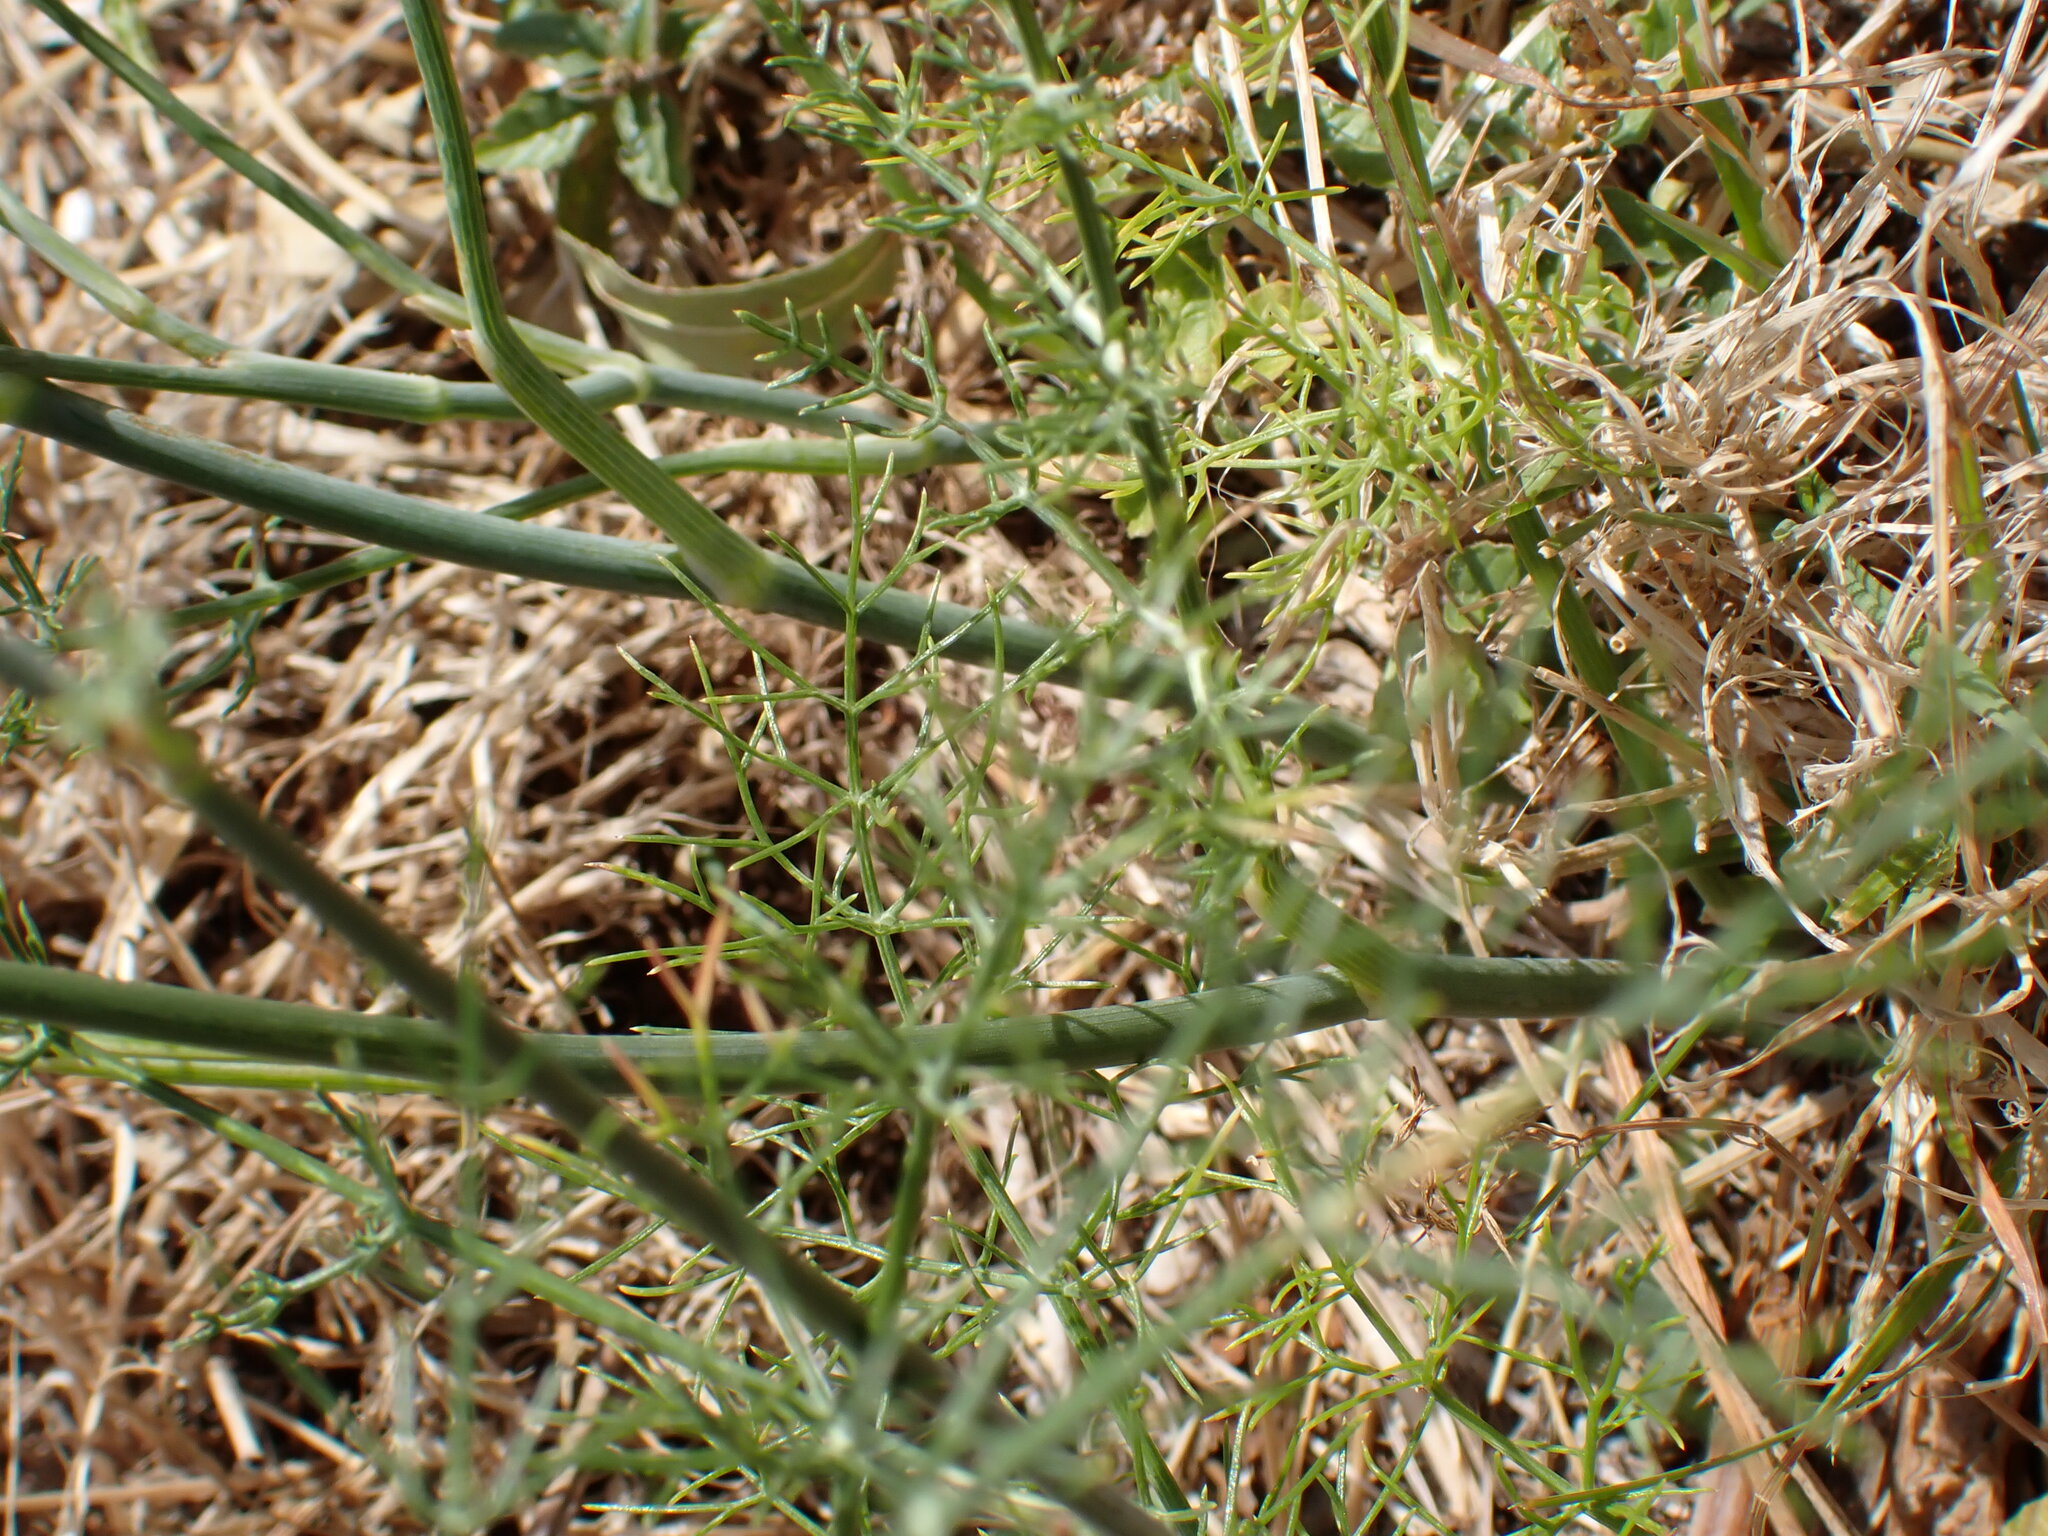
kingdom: Plantae
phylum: Tracheophyta
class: Magnoliopsida
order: Apiales
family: Apiaceae
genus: Foeniculum
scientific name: Foeniculum vulgare
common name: Fennel
